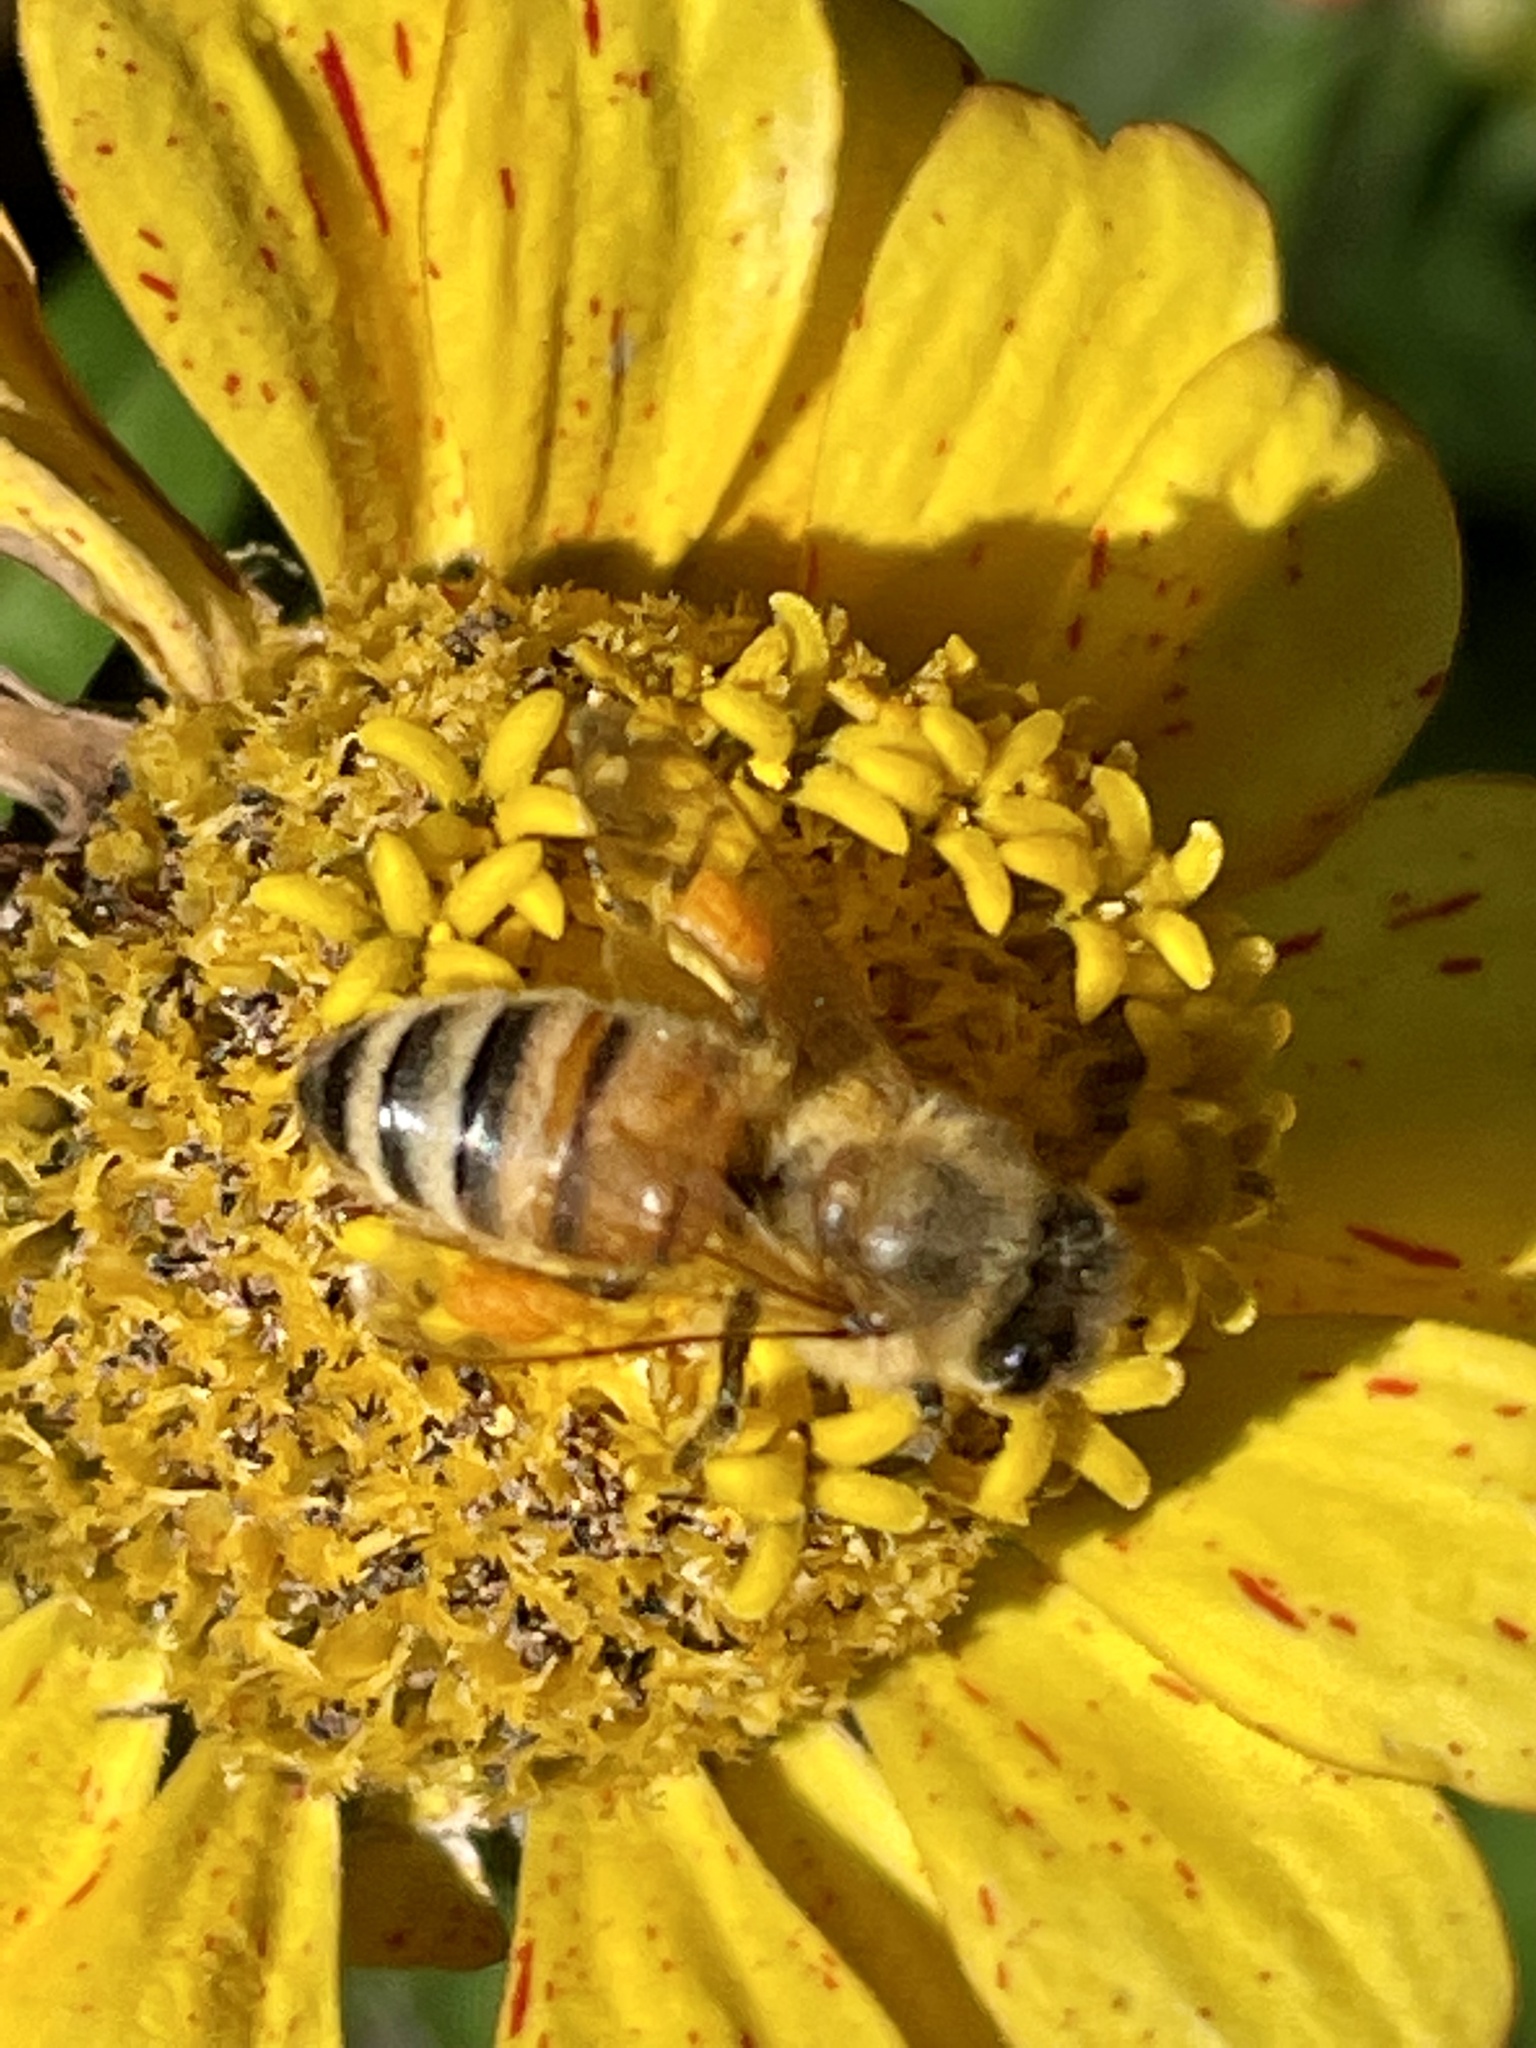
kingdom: Animalia
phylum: Arthropoda
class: Insecta
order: Hymenoptera
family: Apidae
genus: Apis
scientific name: Apis mellifera
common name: Honey bee
